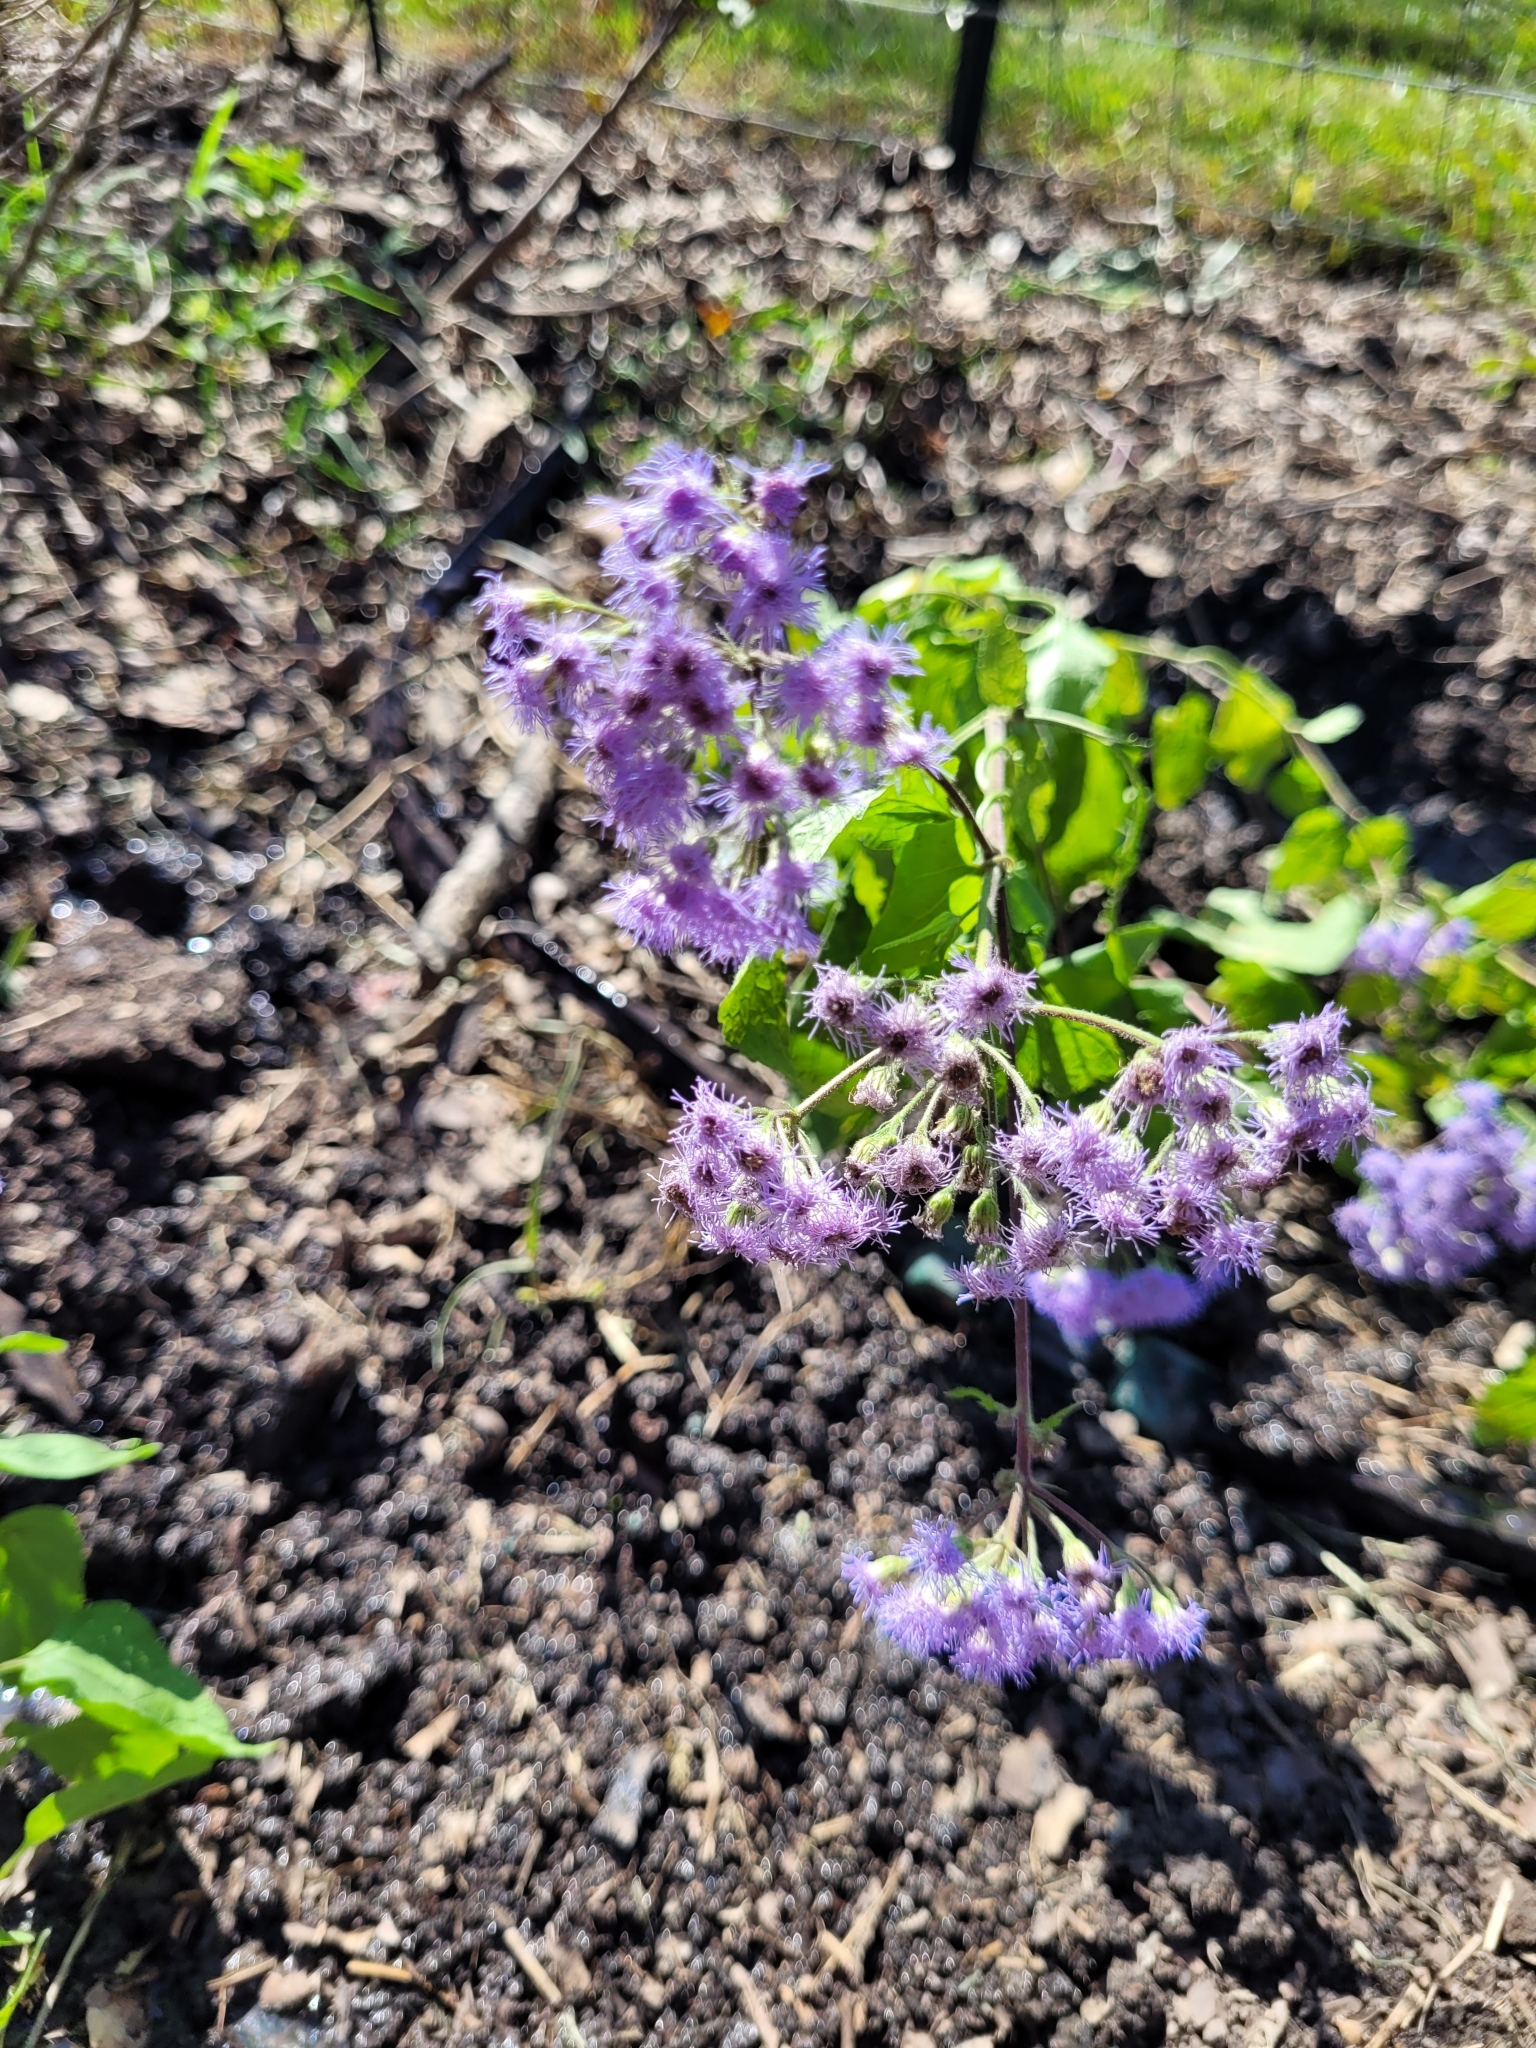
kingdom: Plantae
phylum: Tracheophyta
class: Magnoliopsida
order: Asterales
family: Asteraceae
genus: Conoclinium
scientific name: Conoclinium coelestinum
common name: Blue mistflower
